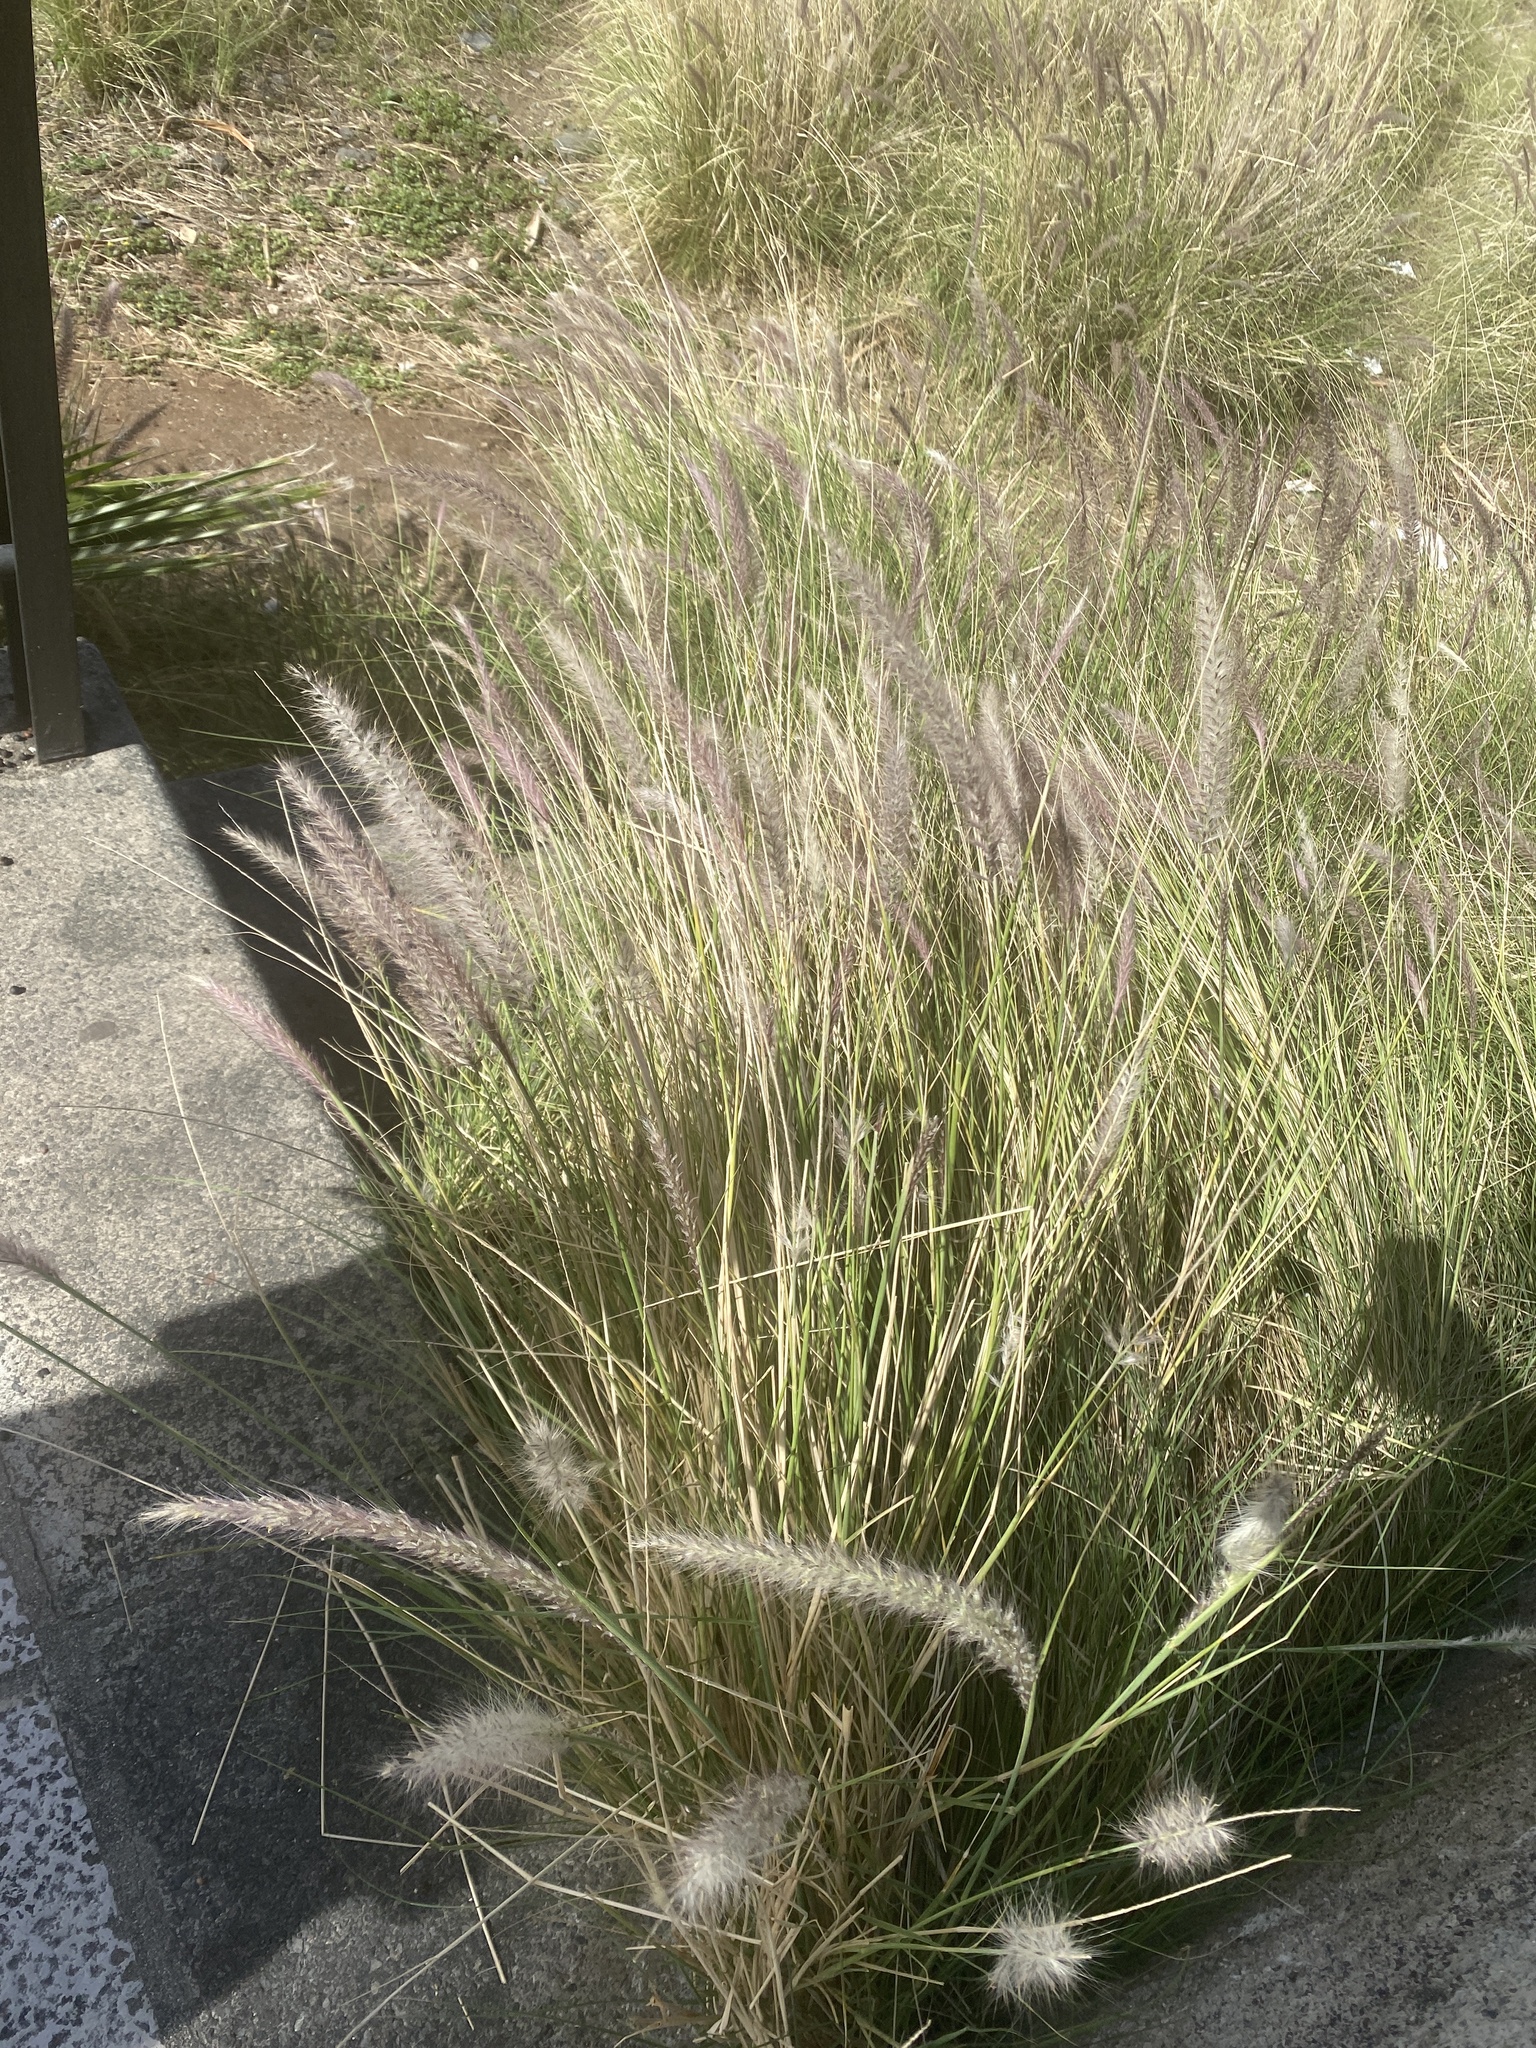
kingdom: Plantae
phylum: Tracheophyta
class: Liliopsida
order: Poales
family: Poaceae
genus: Cenchrus
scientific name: Cenchrus setaceus
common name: Crimson fountaingrass
